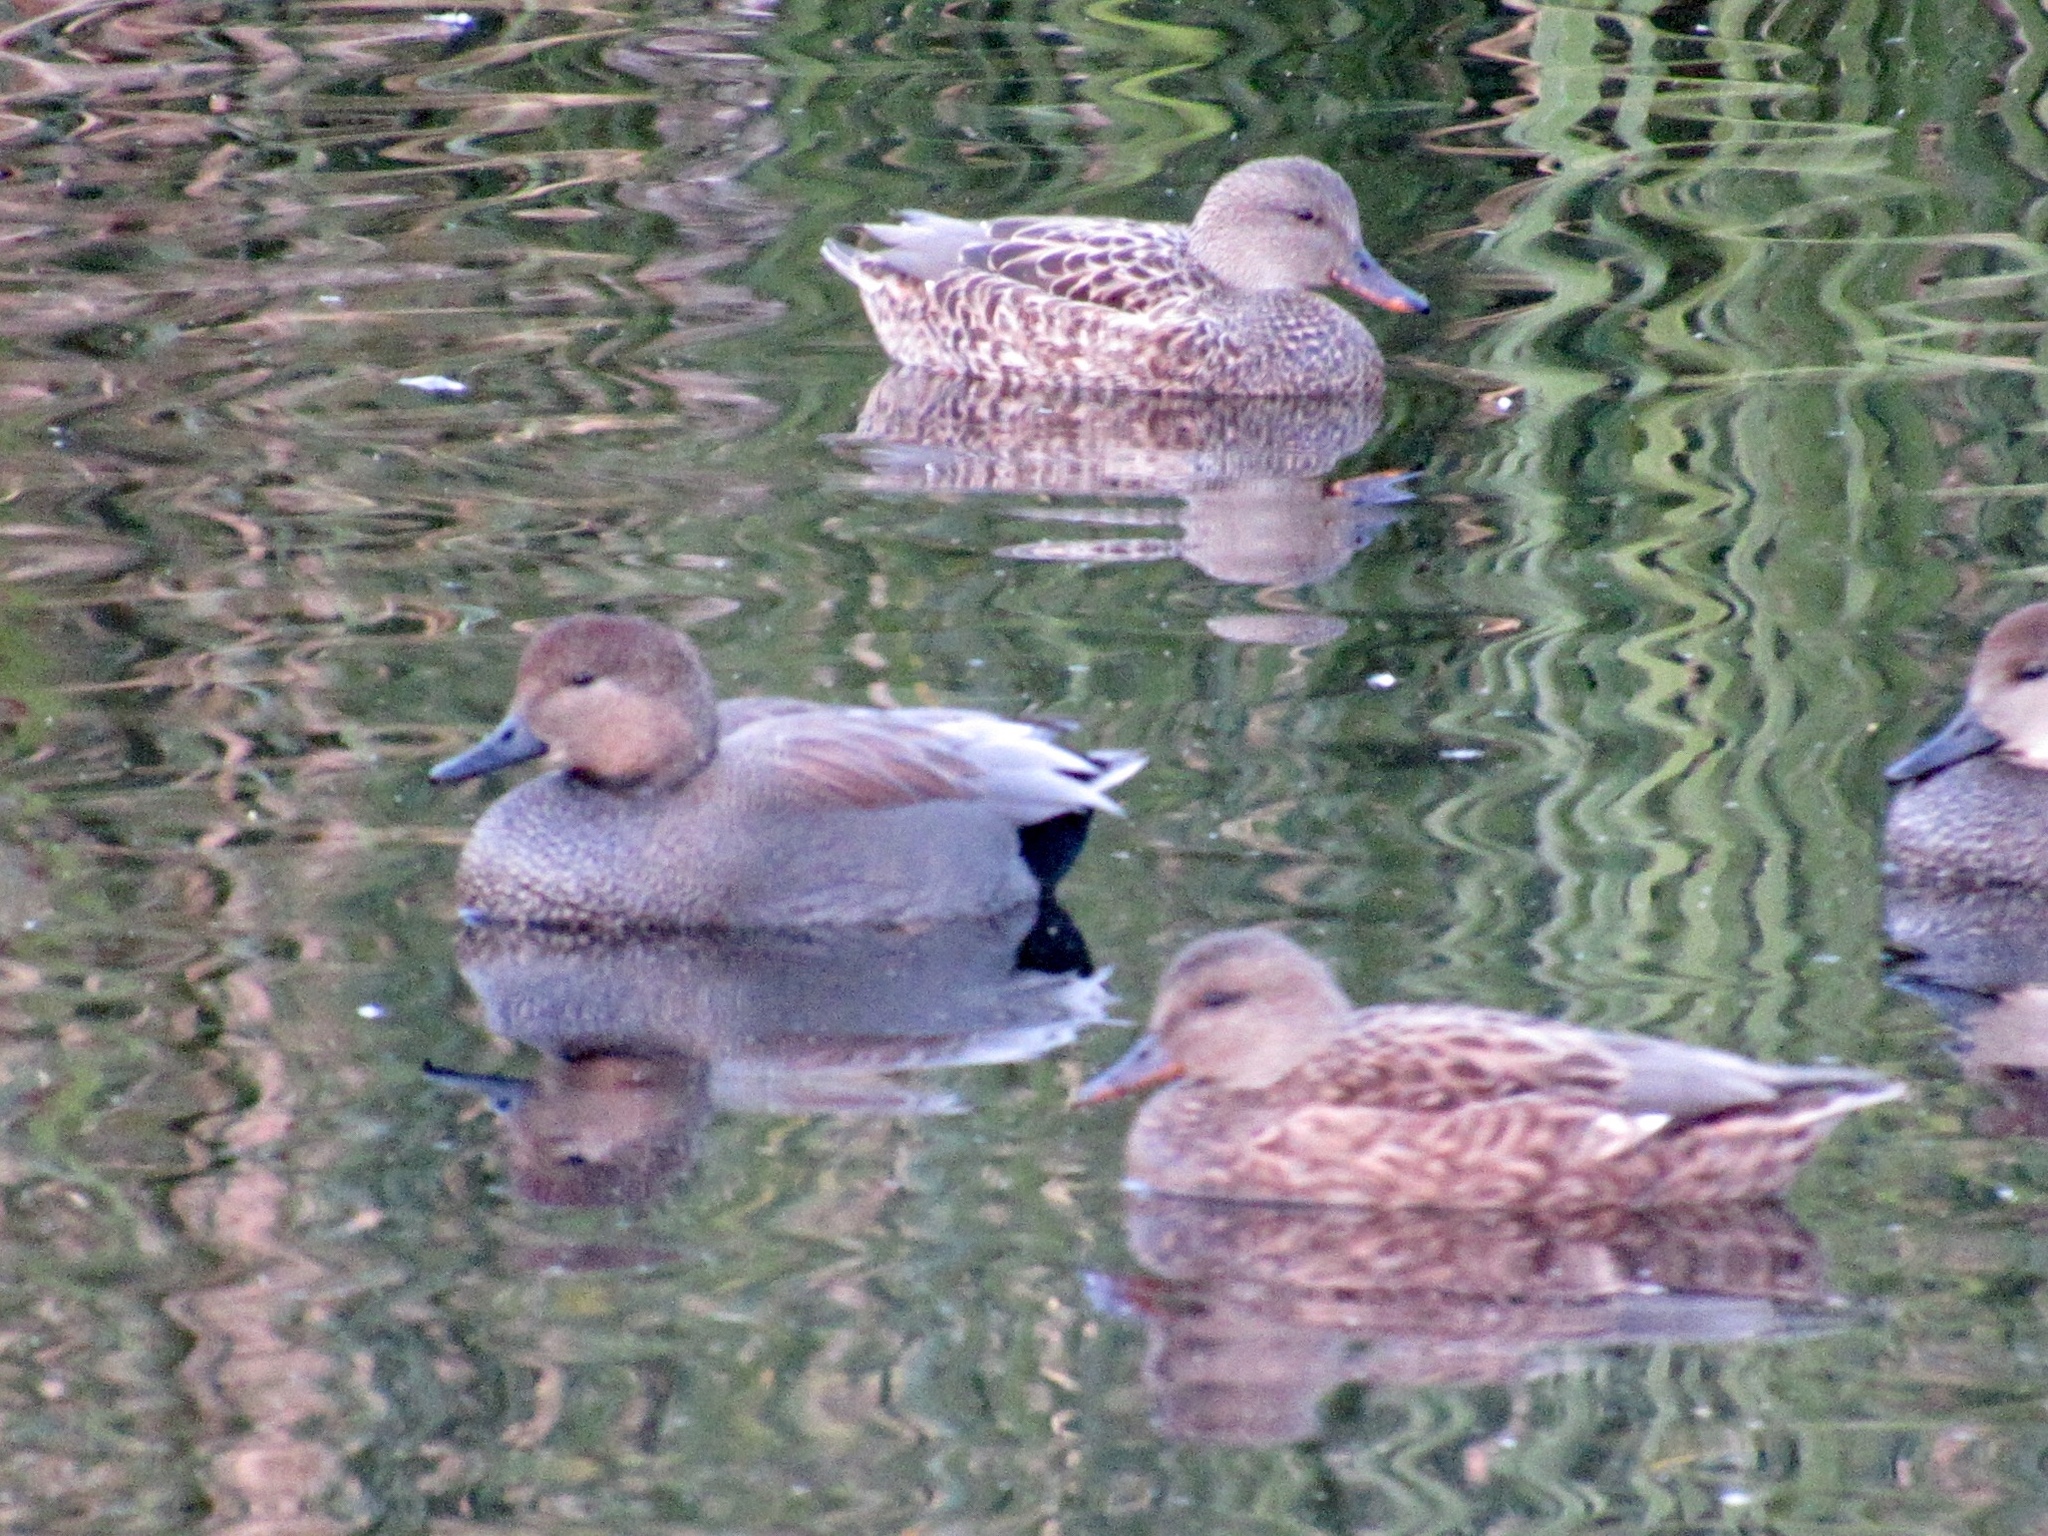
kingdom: Animalia
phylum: Chordata
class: Aves
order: Anseriformes
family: Anatidae
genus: Mareca
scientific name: Mareca strepera
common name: Gadwall
